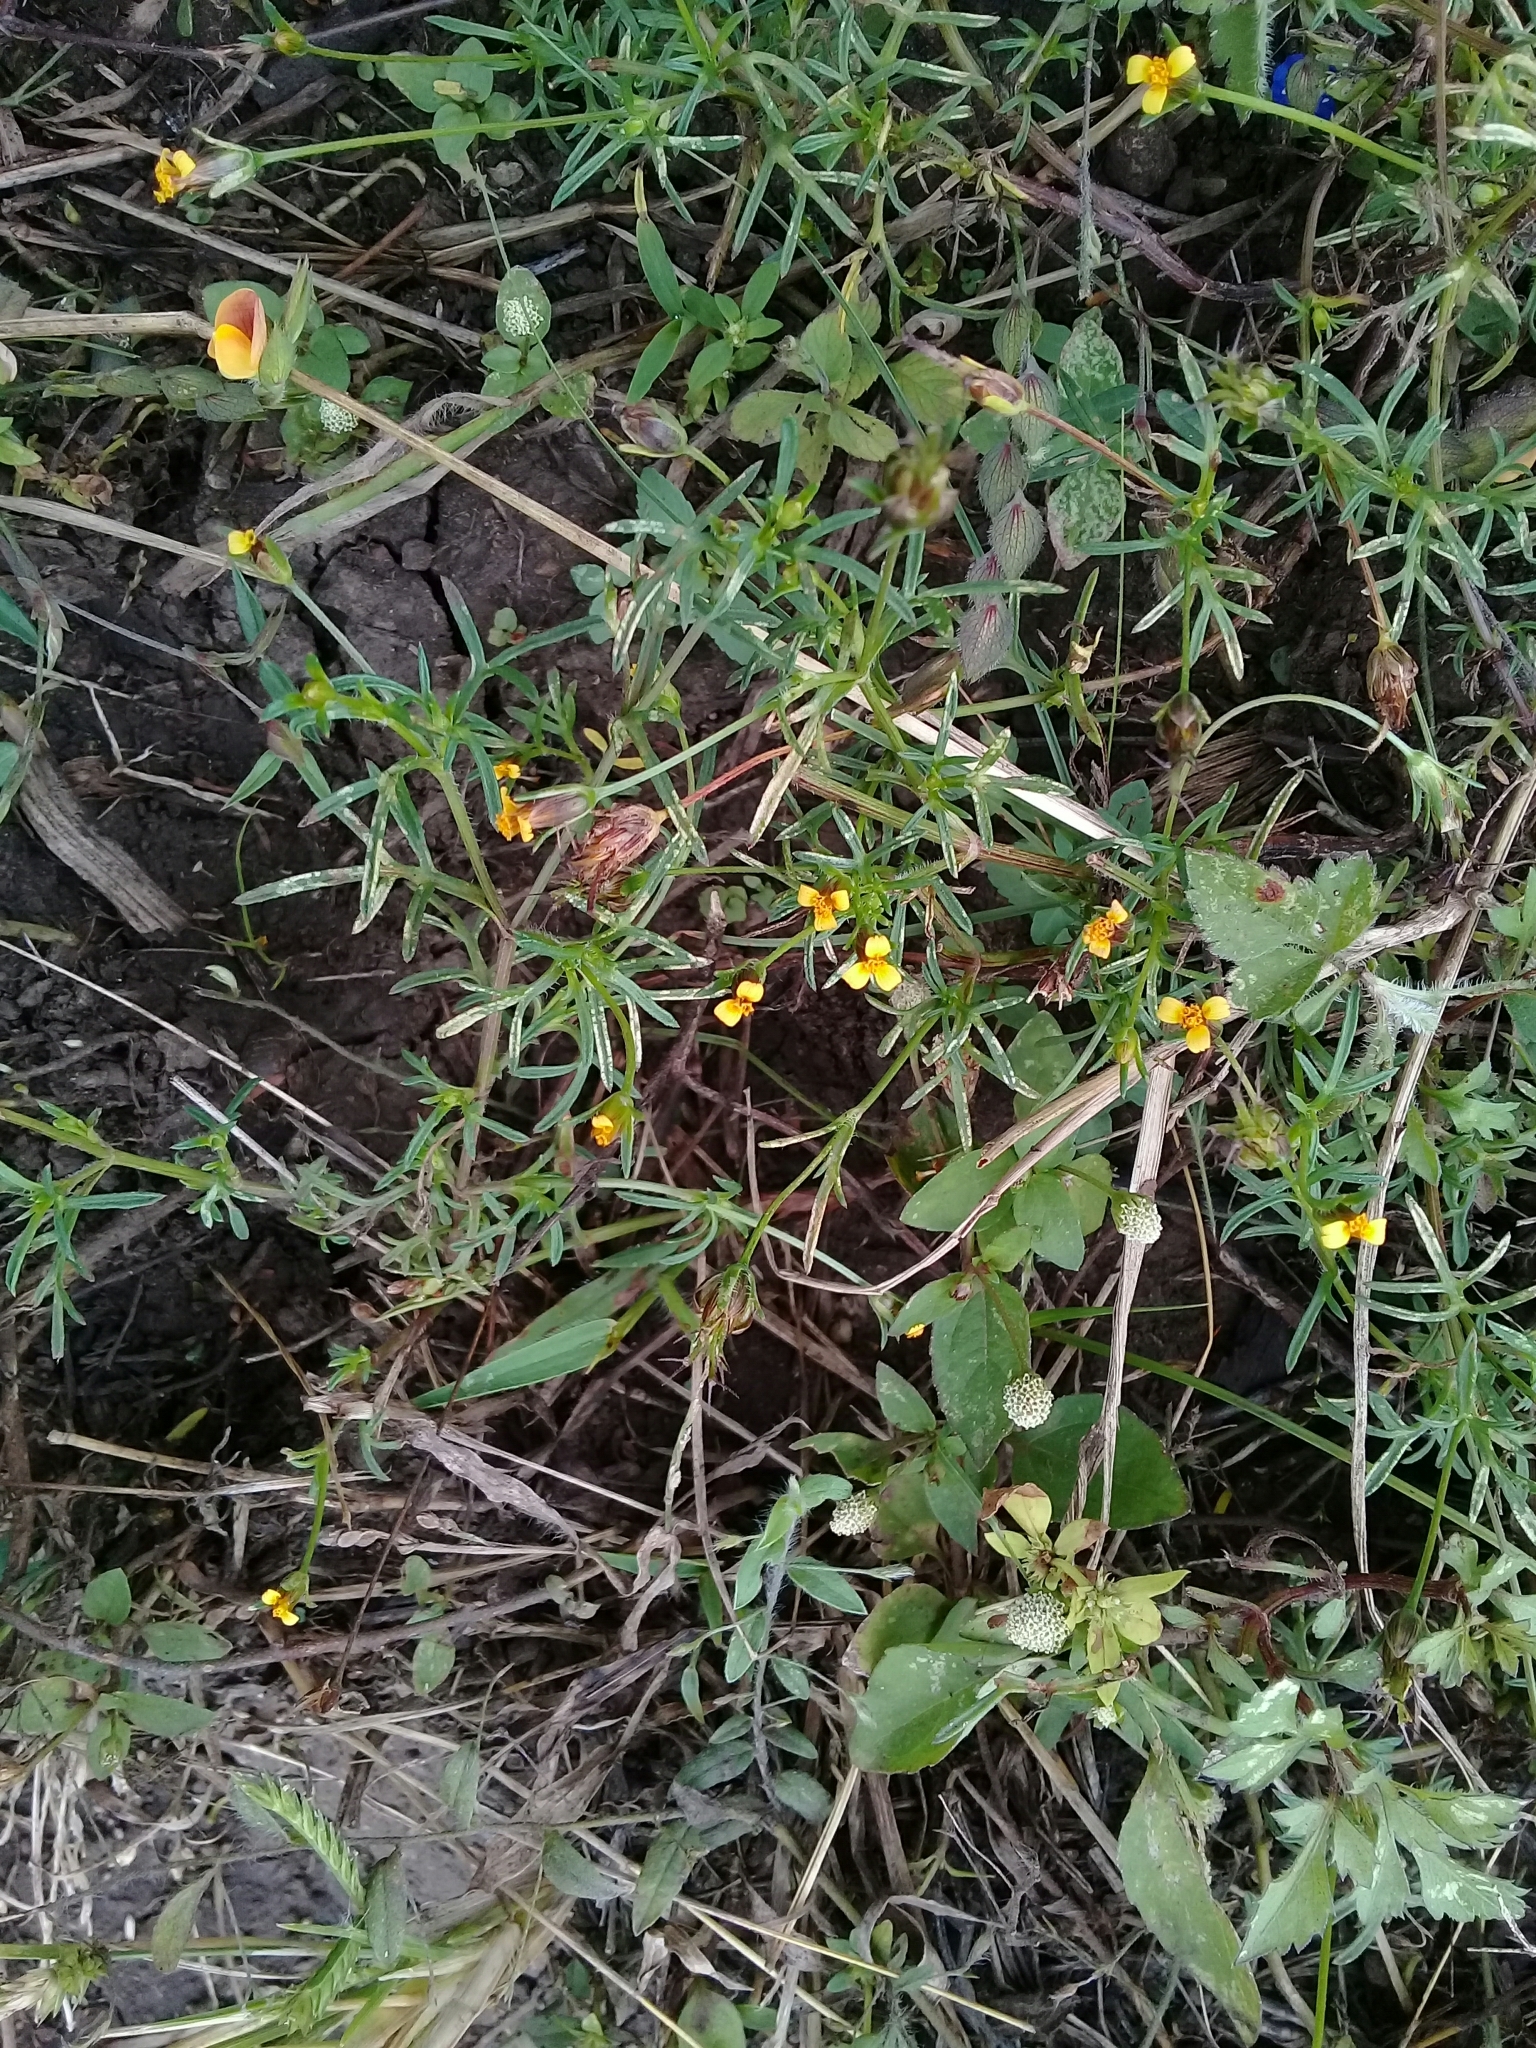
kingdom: Plantae
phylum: Tracheophyta
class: Magnoliopsida
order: Asterales
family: Asteraceae
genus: Heterosperma
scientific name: Heterosperma pinnatum
